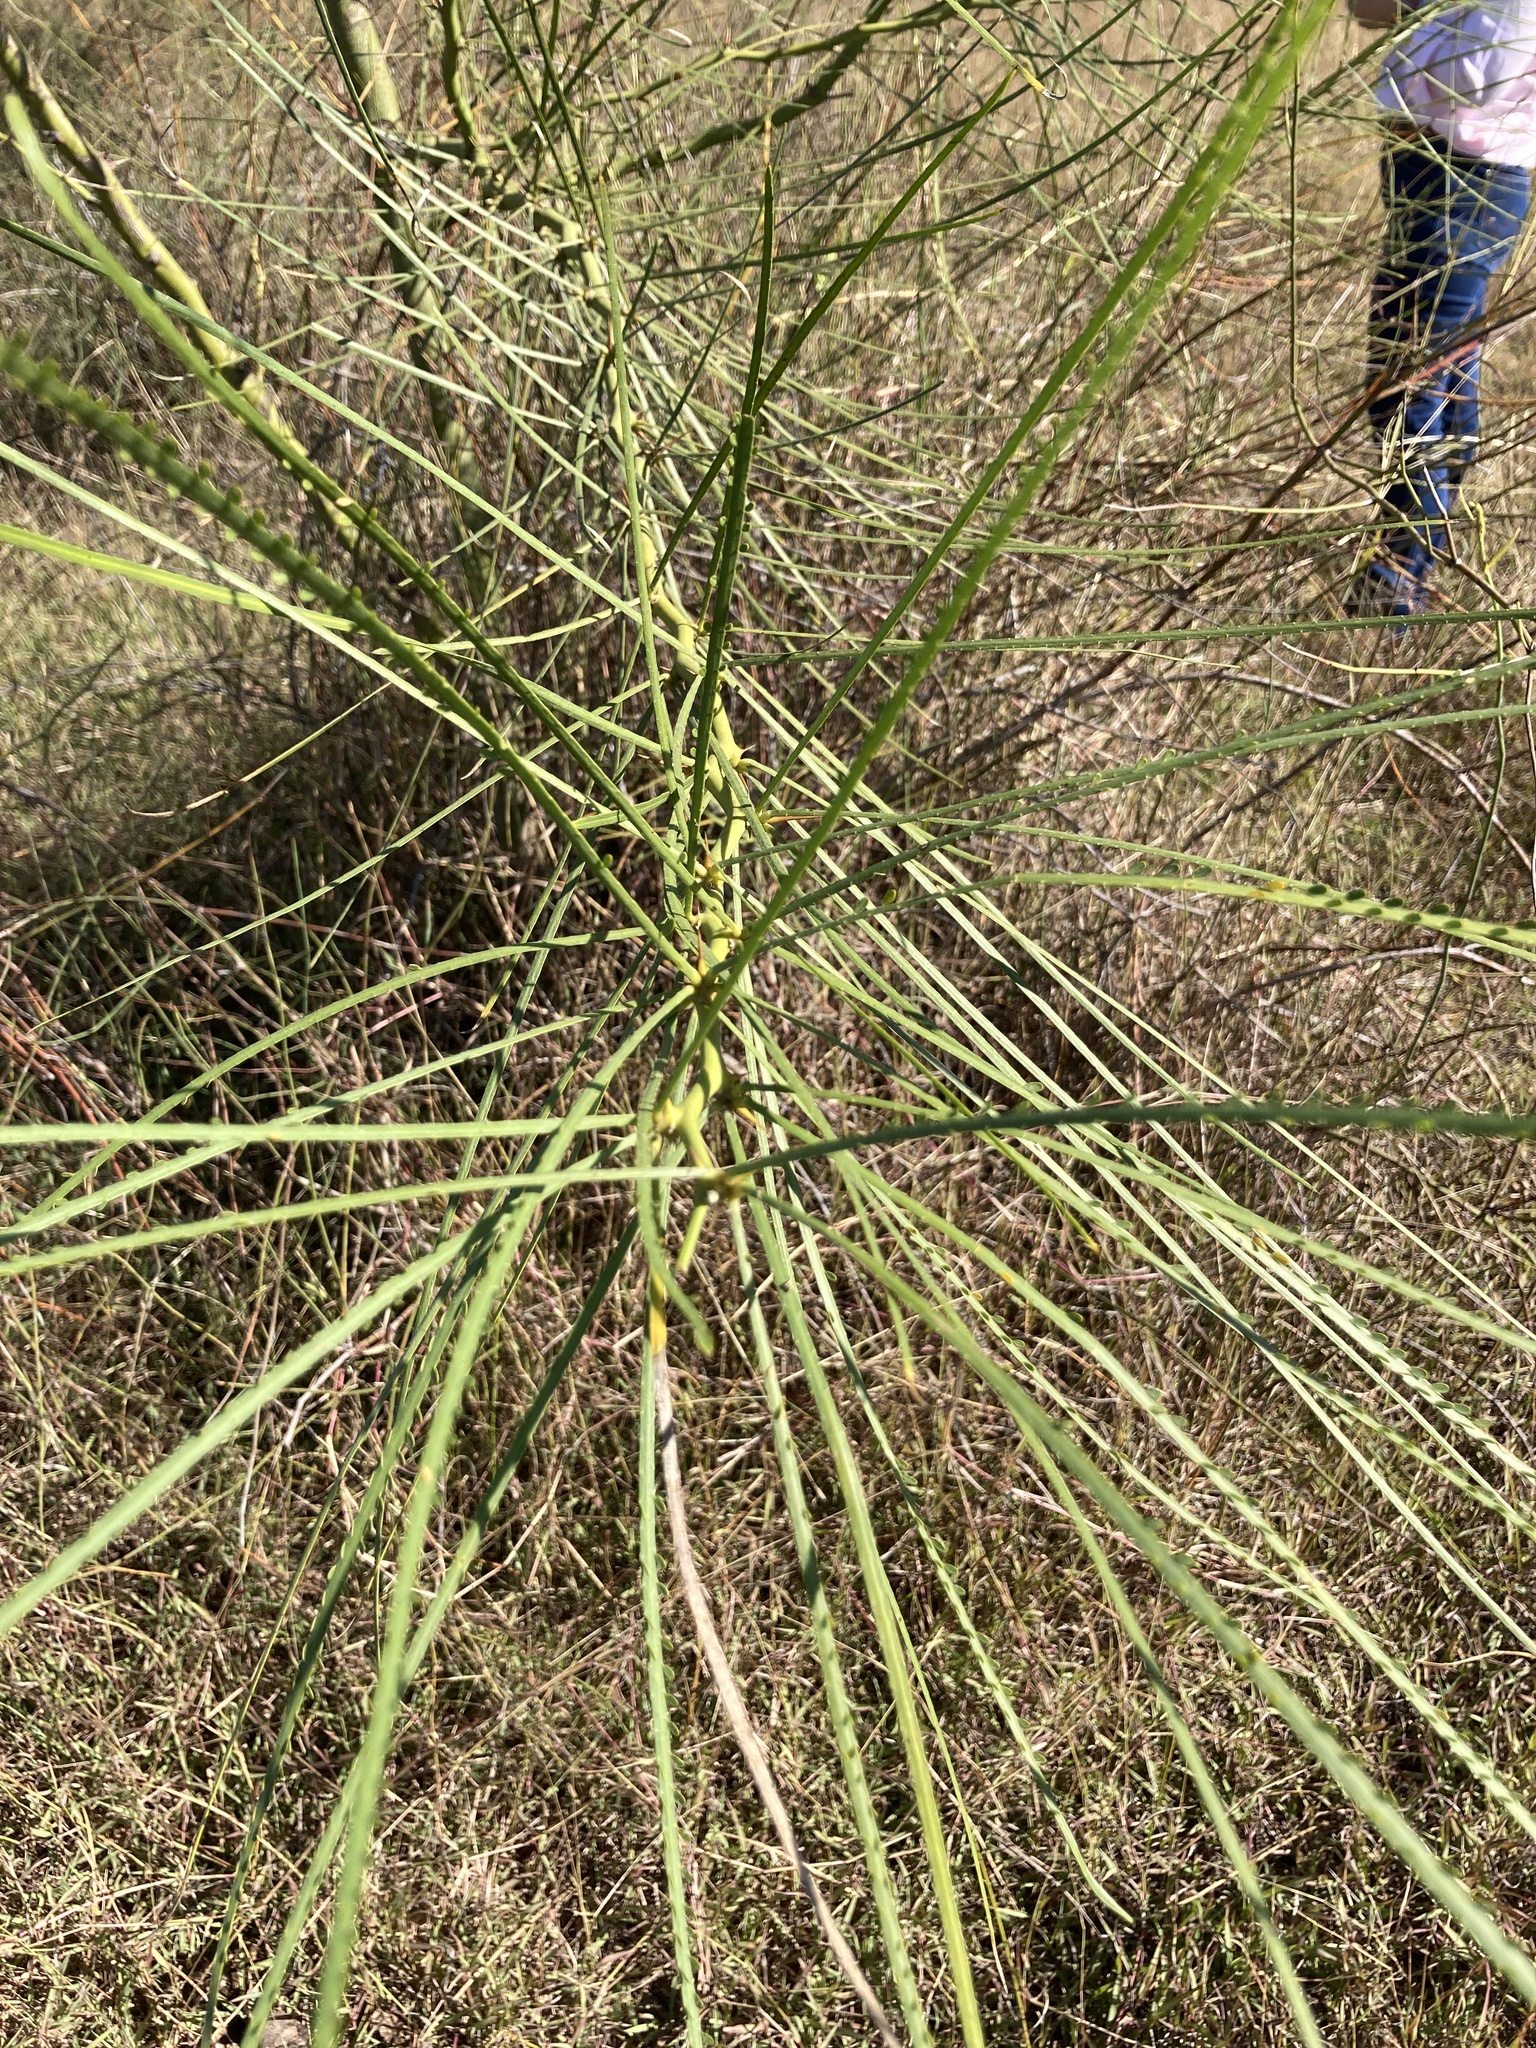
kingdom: Plantae
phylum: Tracheophyta
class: Magnoliopsida
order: Fabales
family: Fabaceae
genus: Parkinsonia
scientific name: Parkinsonia aculeata
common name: Jerusalem thorn
